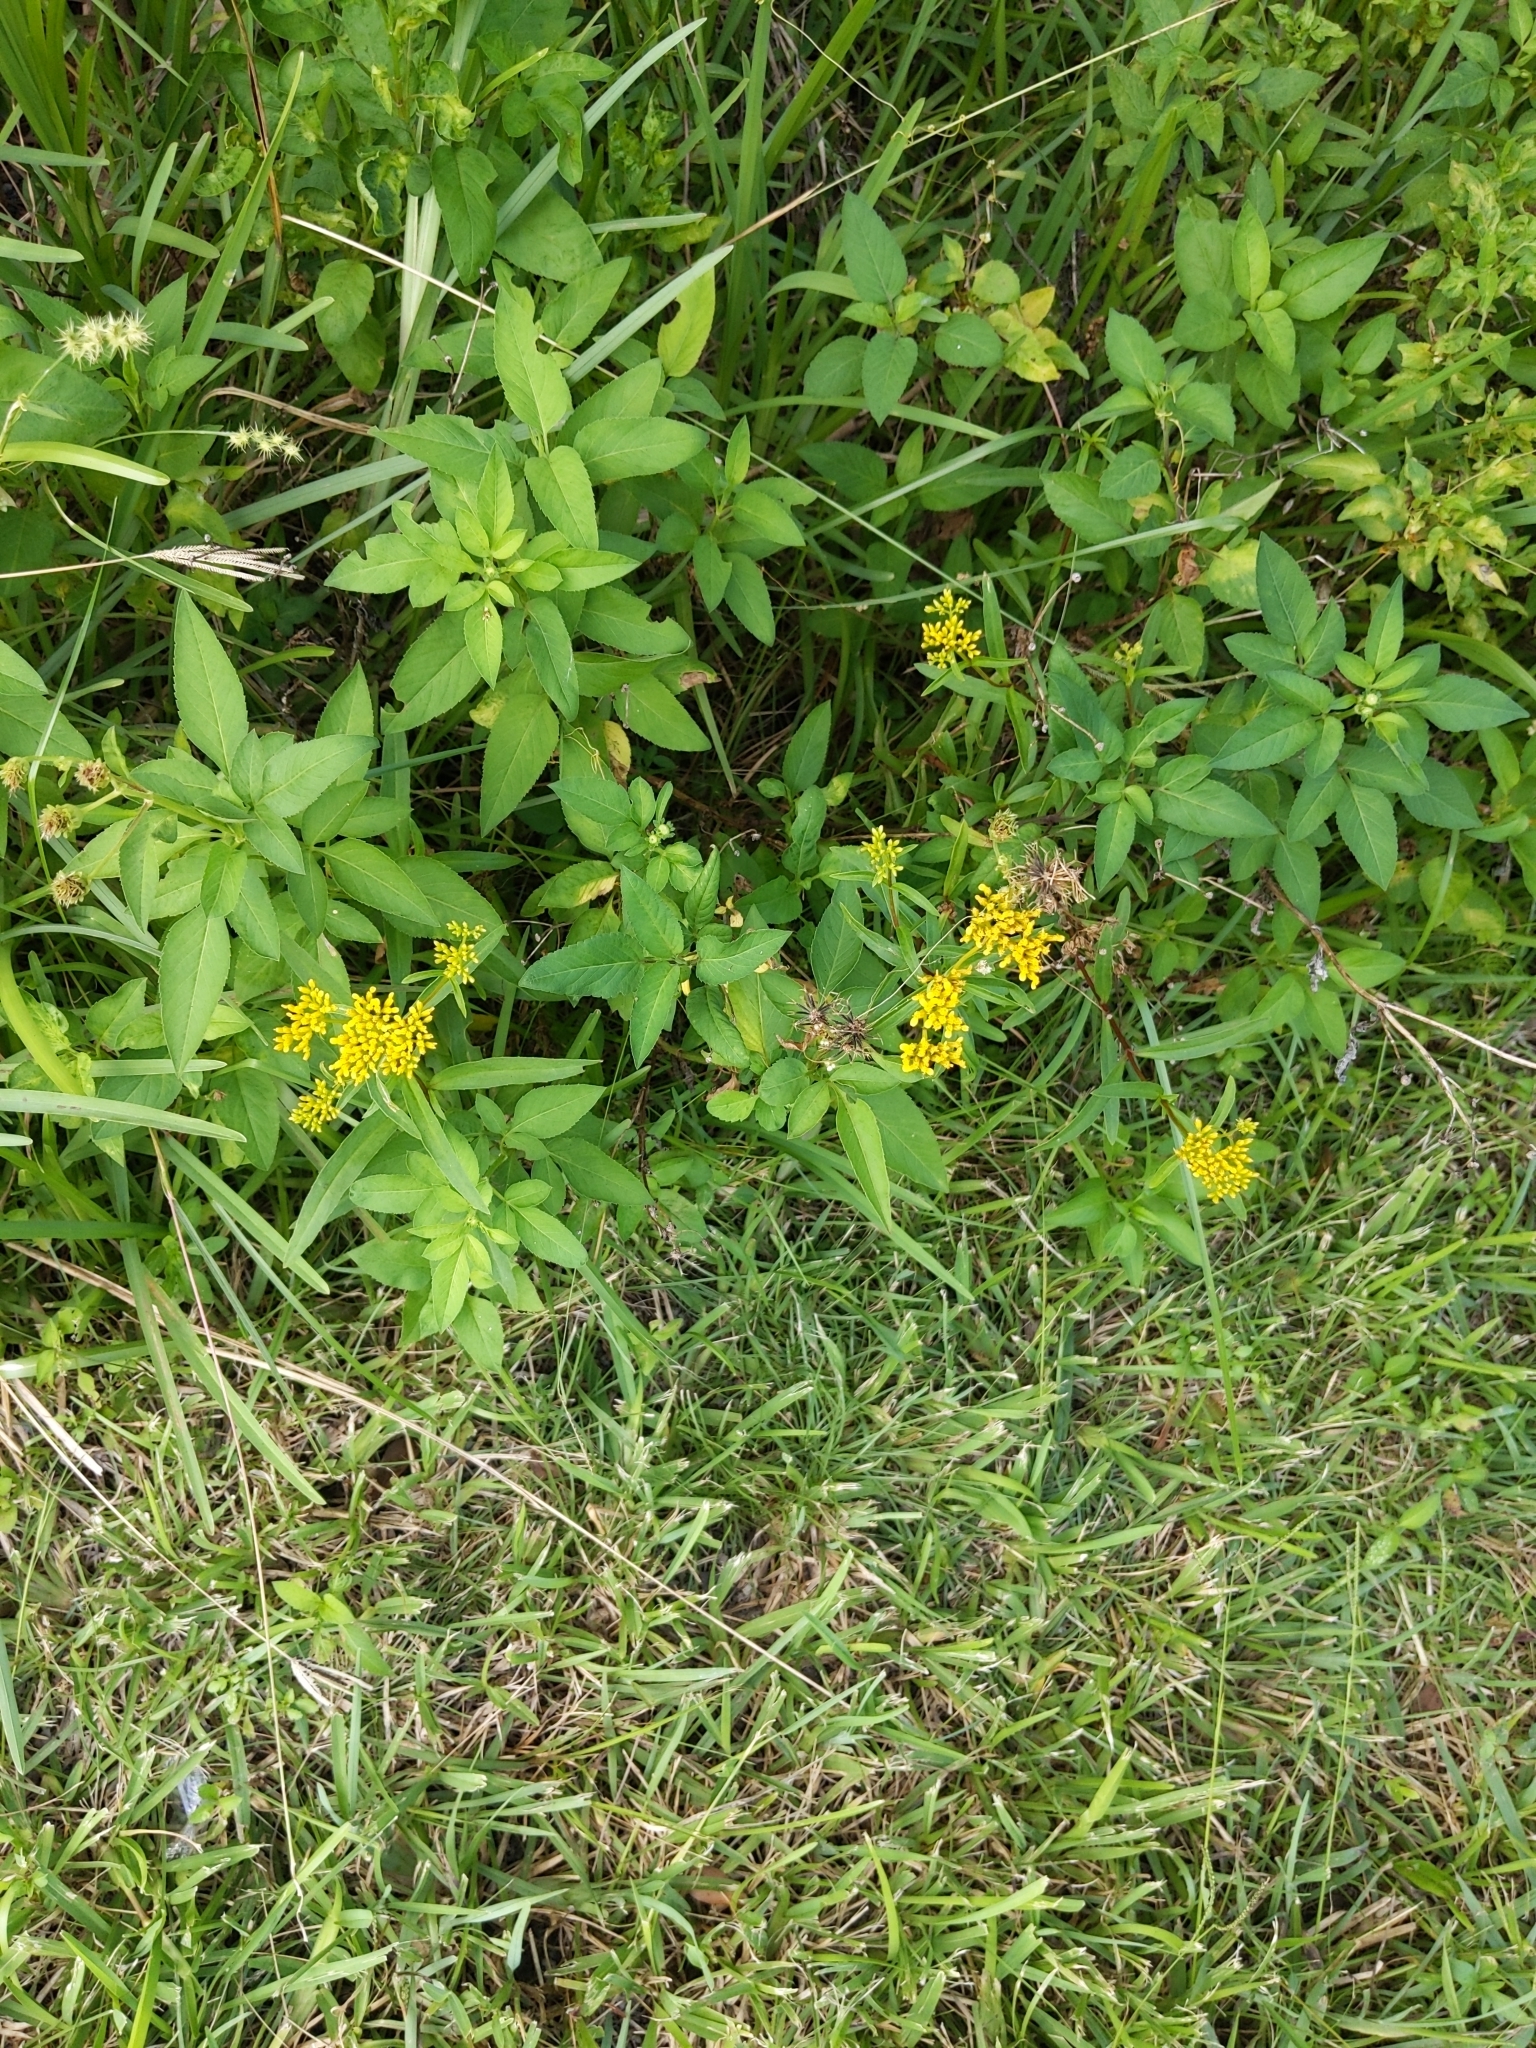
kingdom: Plantae
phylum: Tracheophyta
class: Magnoliopsida
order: Asterales
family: Asteraceae
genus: Flaveria
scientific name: Flaveria linearis
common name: Yellowtop
